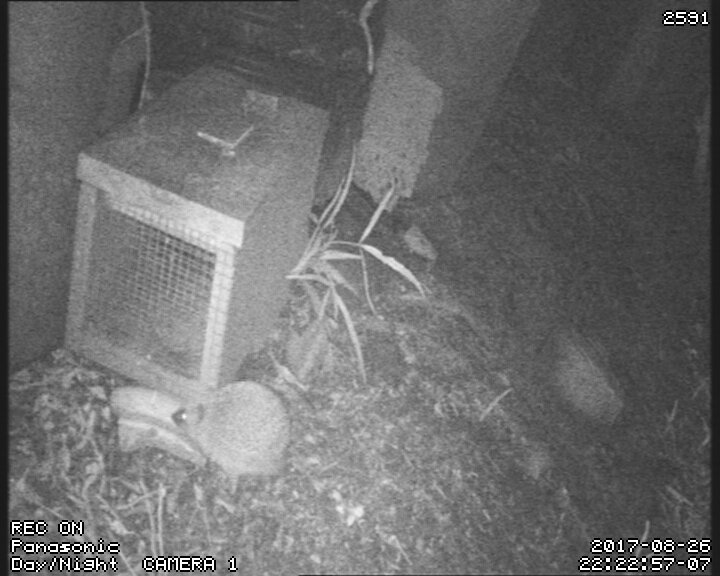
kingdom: Animalia
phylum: Chordata
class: Mammalia
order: Erinaceomorpha
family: Erinaceidae
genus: Erinaceus
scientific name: Erinaceus europaeus
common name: West european hedgehog
